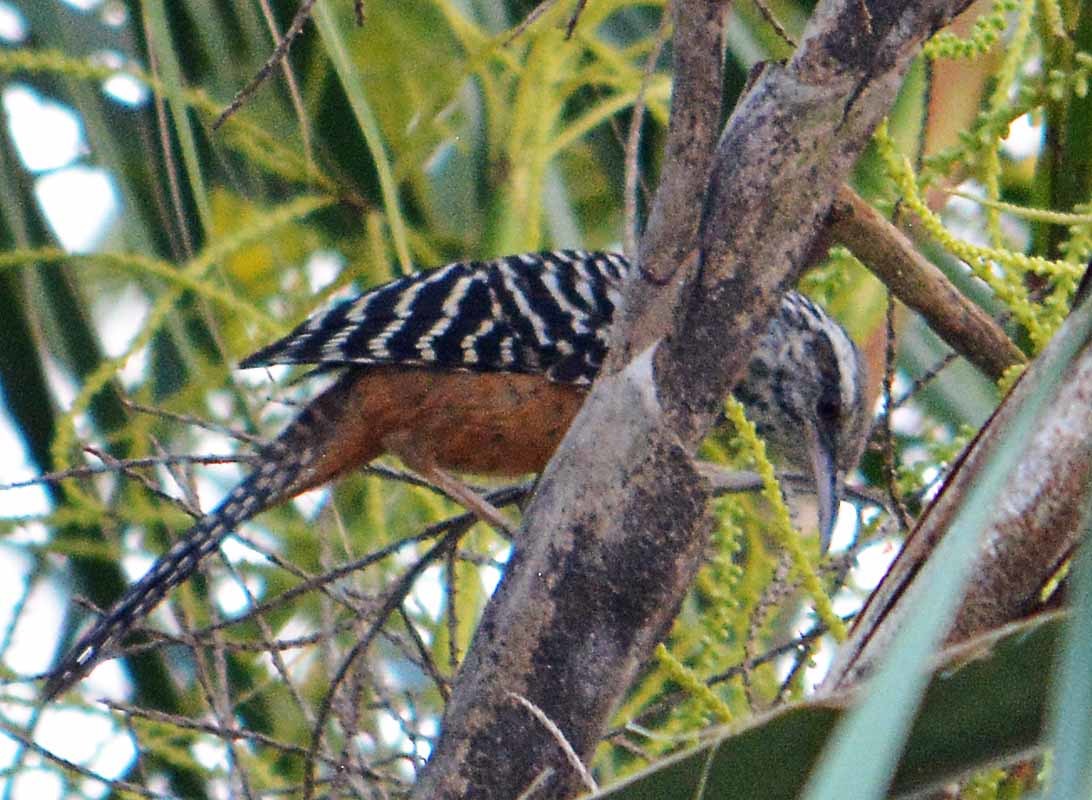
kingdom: Animalia
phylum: Chordata
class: Aves
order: Passeriformes
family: Troglodytidae
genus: Campylorhynchus
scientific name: Campylorhynchus zonatus
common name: Band-backed wren
